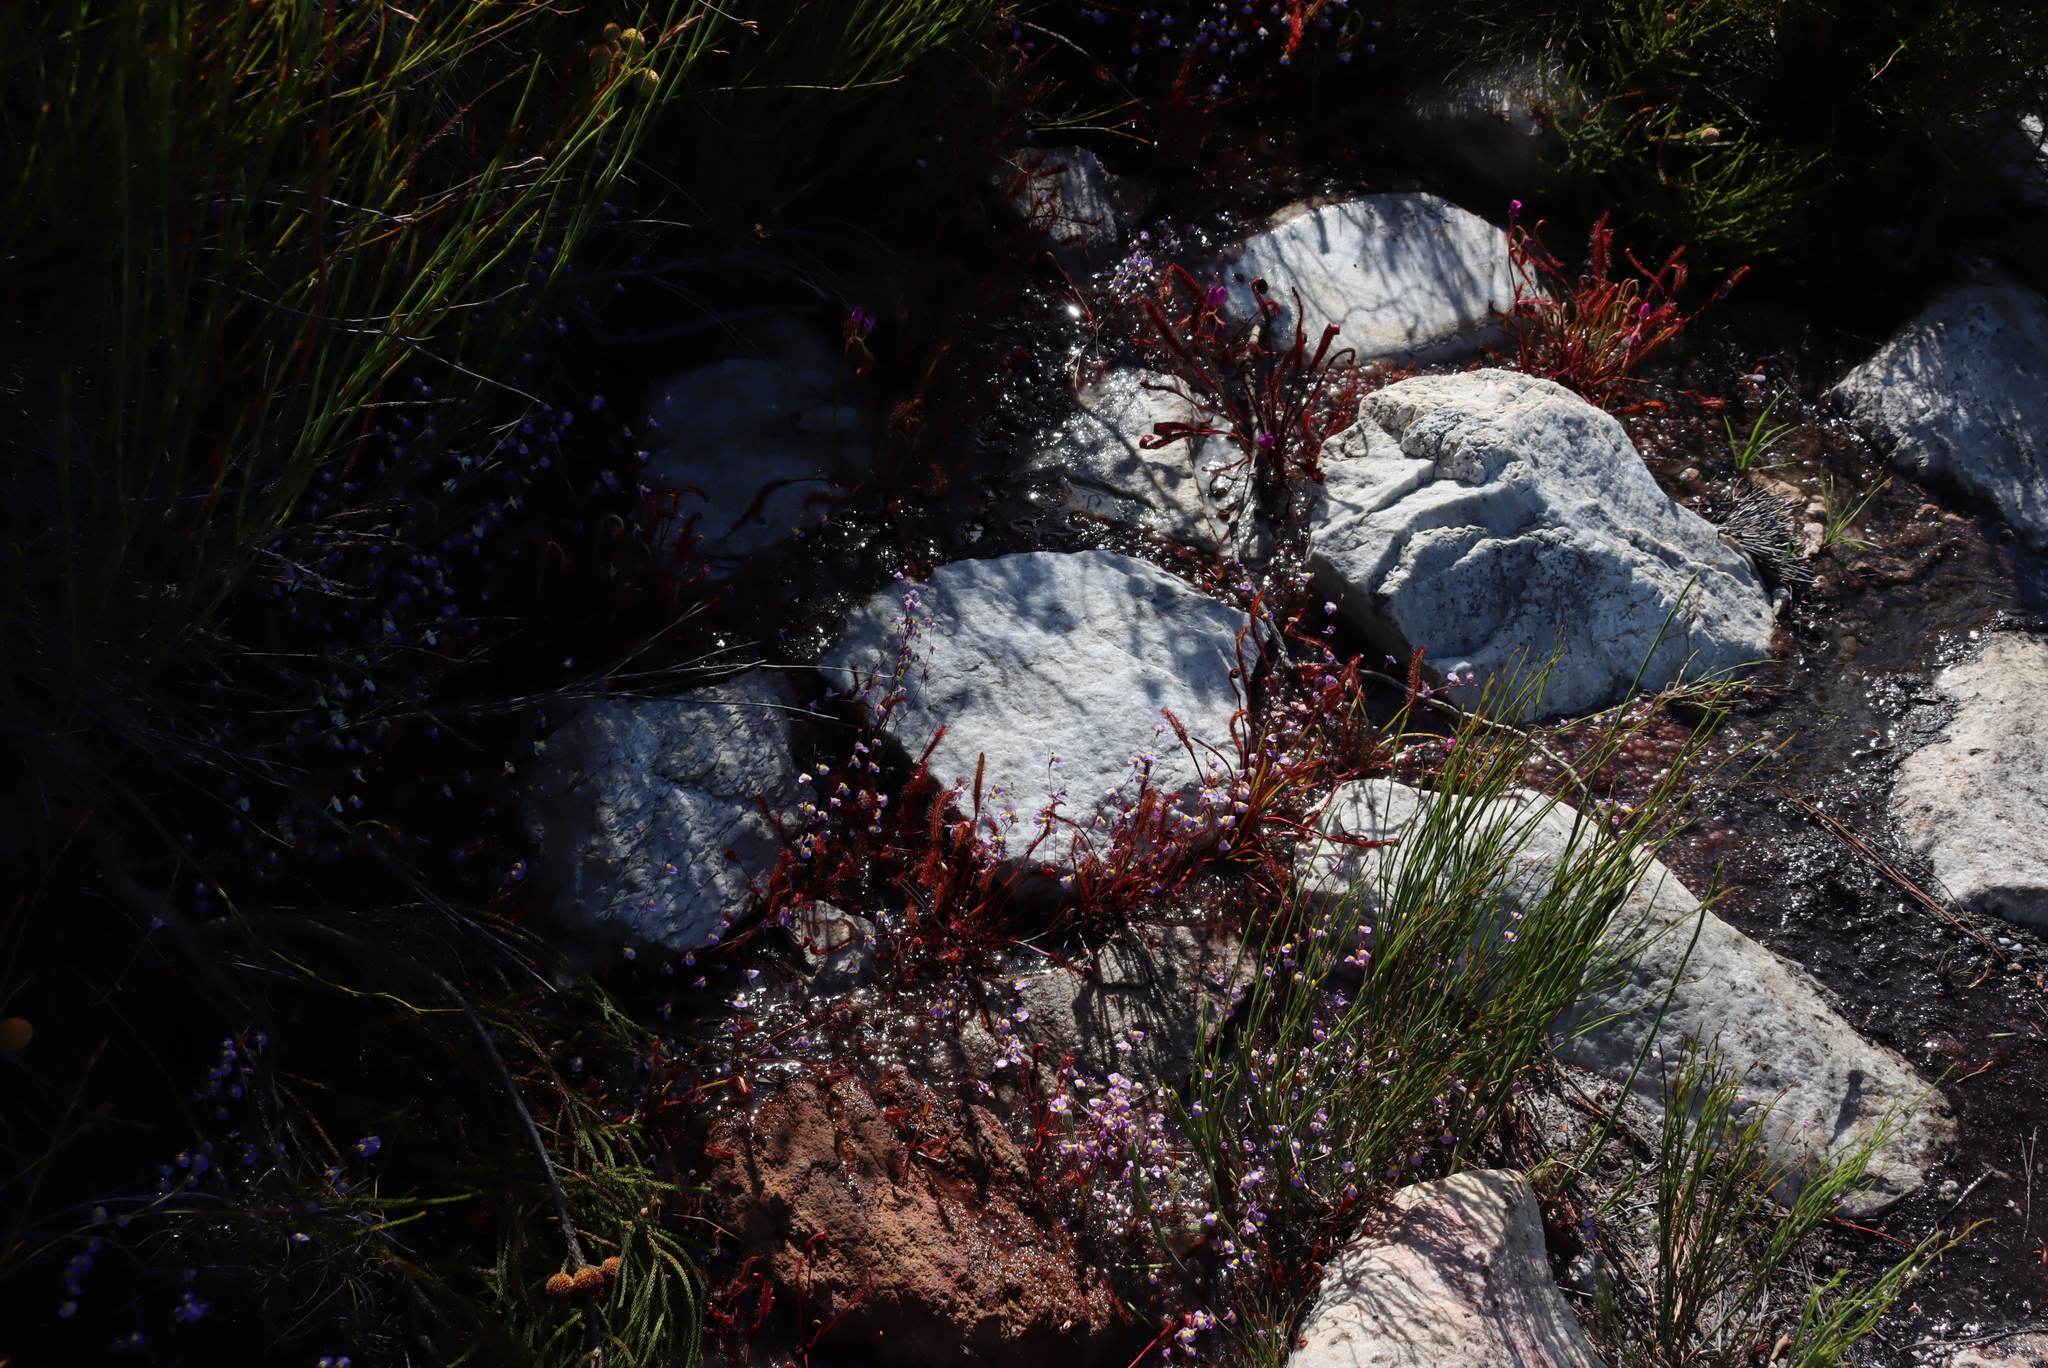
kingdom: Plantae
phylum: Tracheophyta
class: Magnoliopsida
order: Lamiales
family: Lentibulariaceae
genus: Utricularia
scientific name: Utricularia bisquamata
